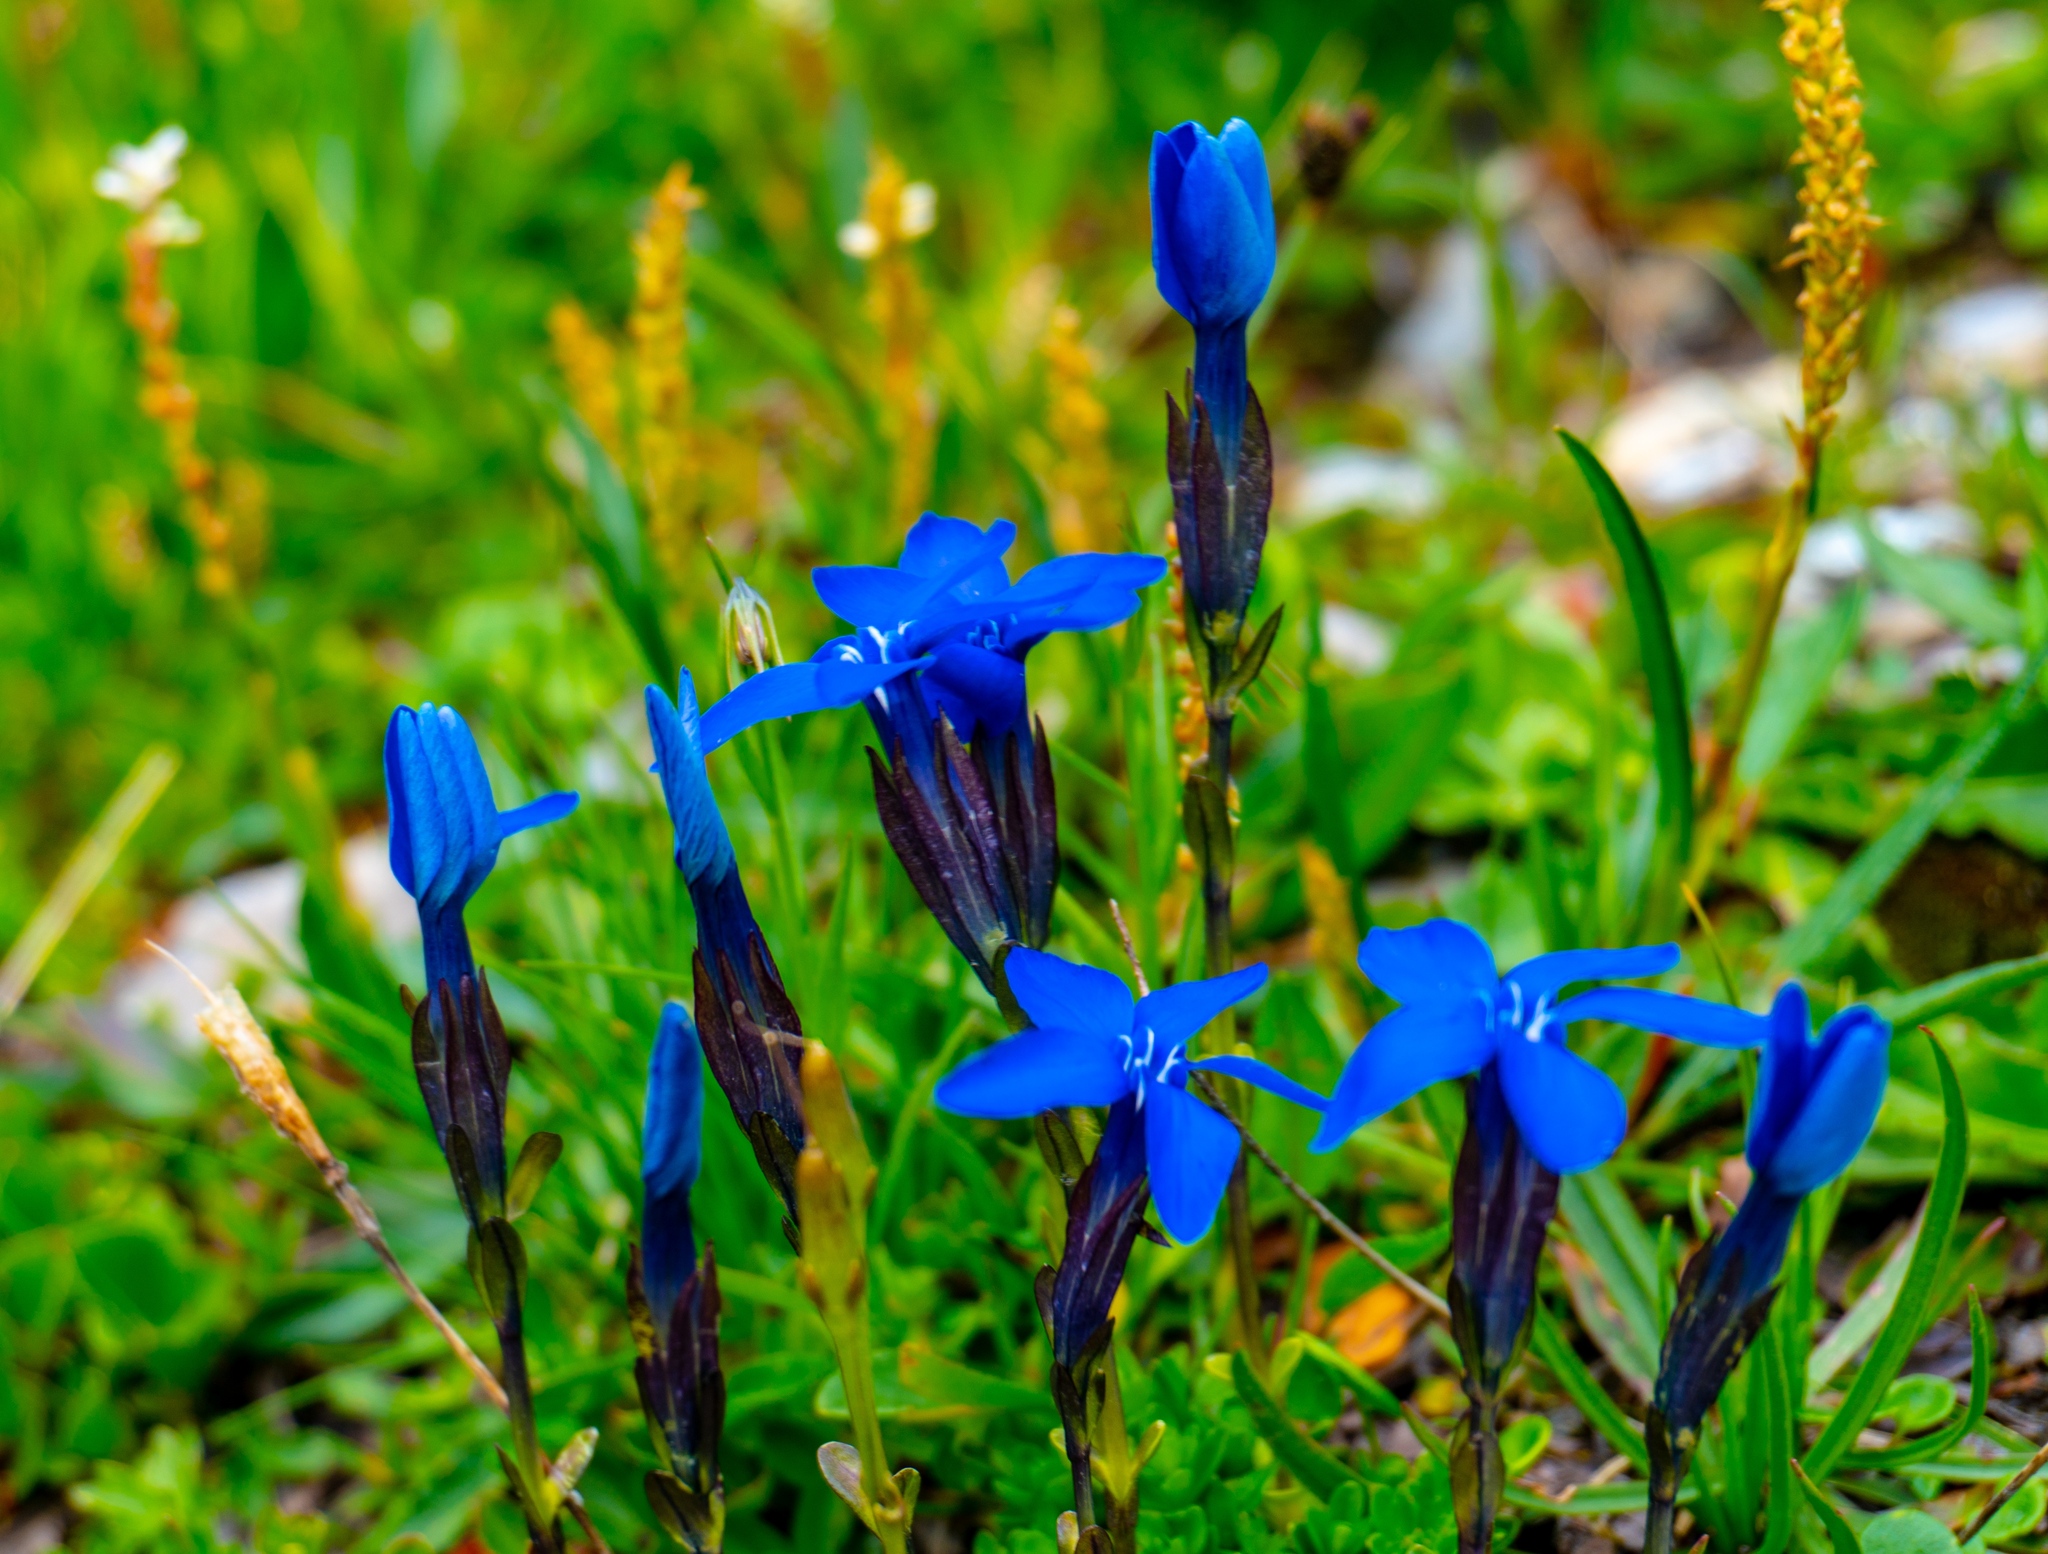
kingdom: Plantae
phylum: Tracheophyta
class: Magnoliopsida
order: Gentianales
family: Gentianaceae
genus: Gentiana
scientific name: Gentiana bavarica
